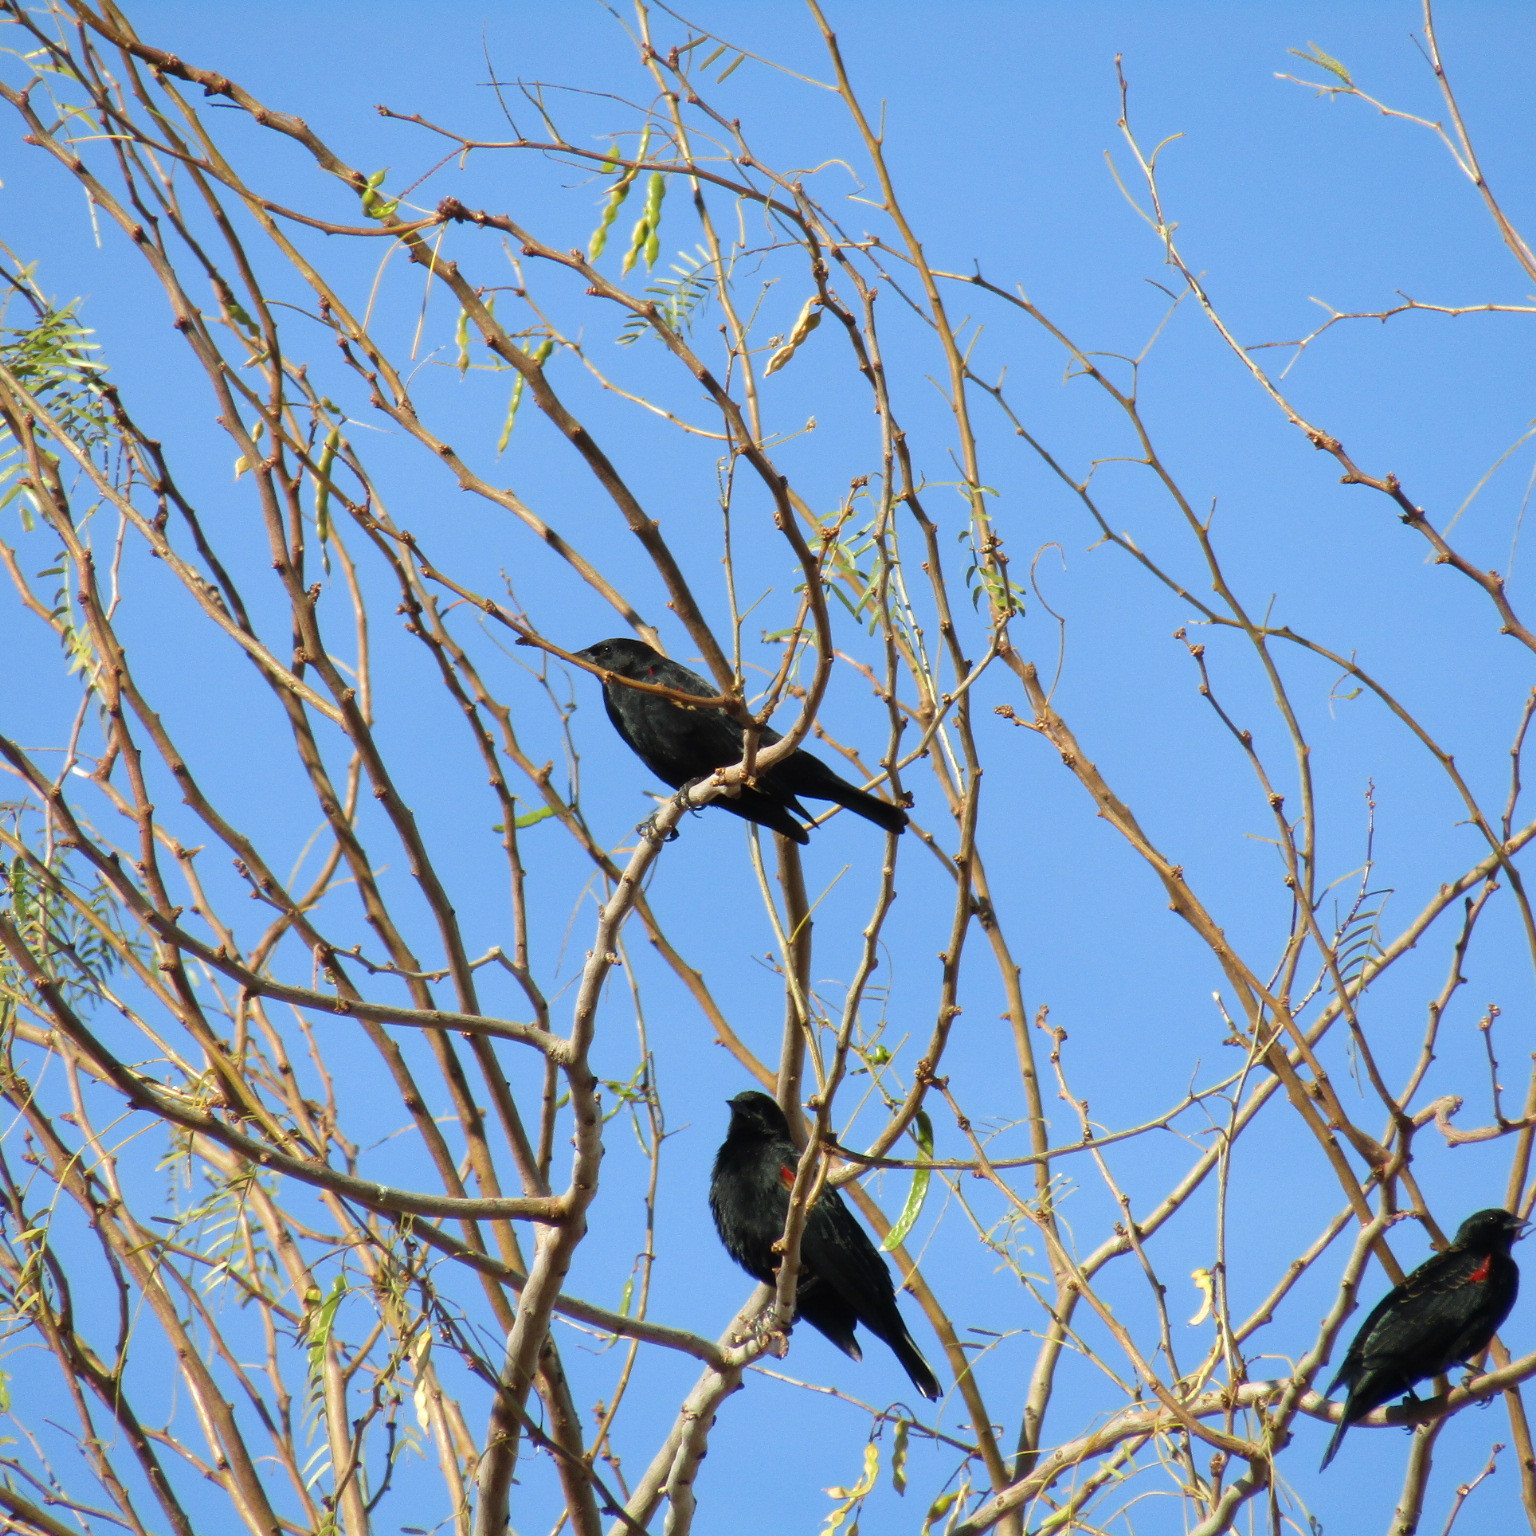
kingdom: Animalia
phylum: Chordata
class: Aves
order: Passeriformes
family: Icteridae
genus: Agelaius
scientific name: Agelaius phoeniceus
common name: Red-winged blackbird
